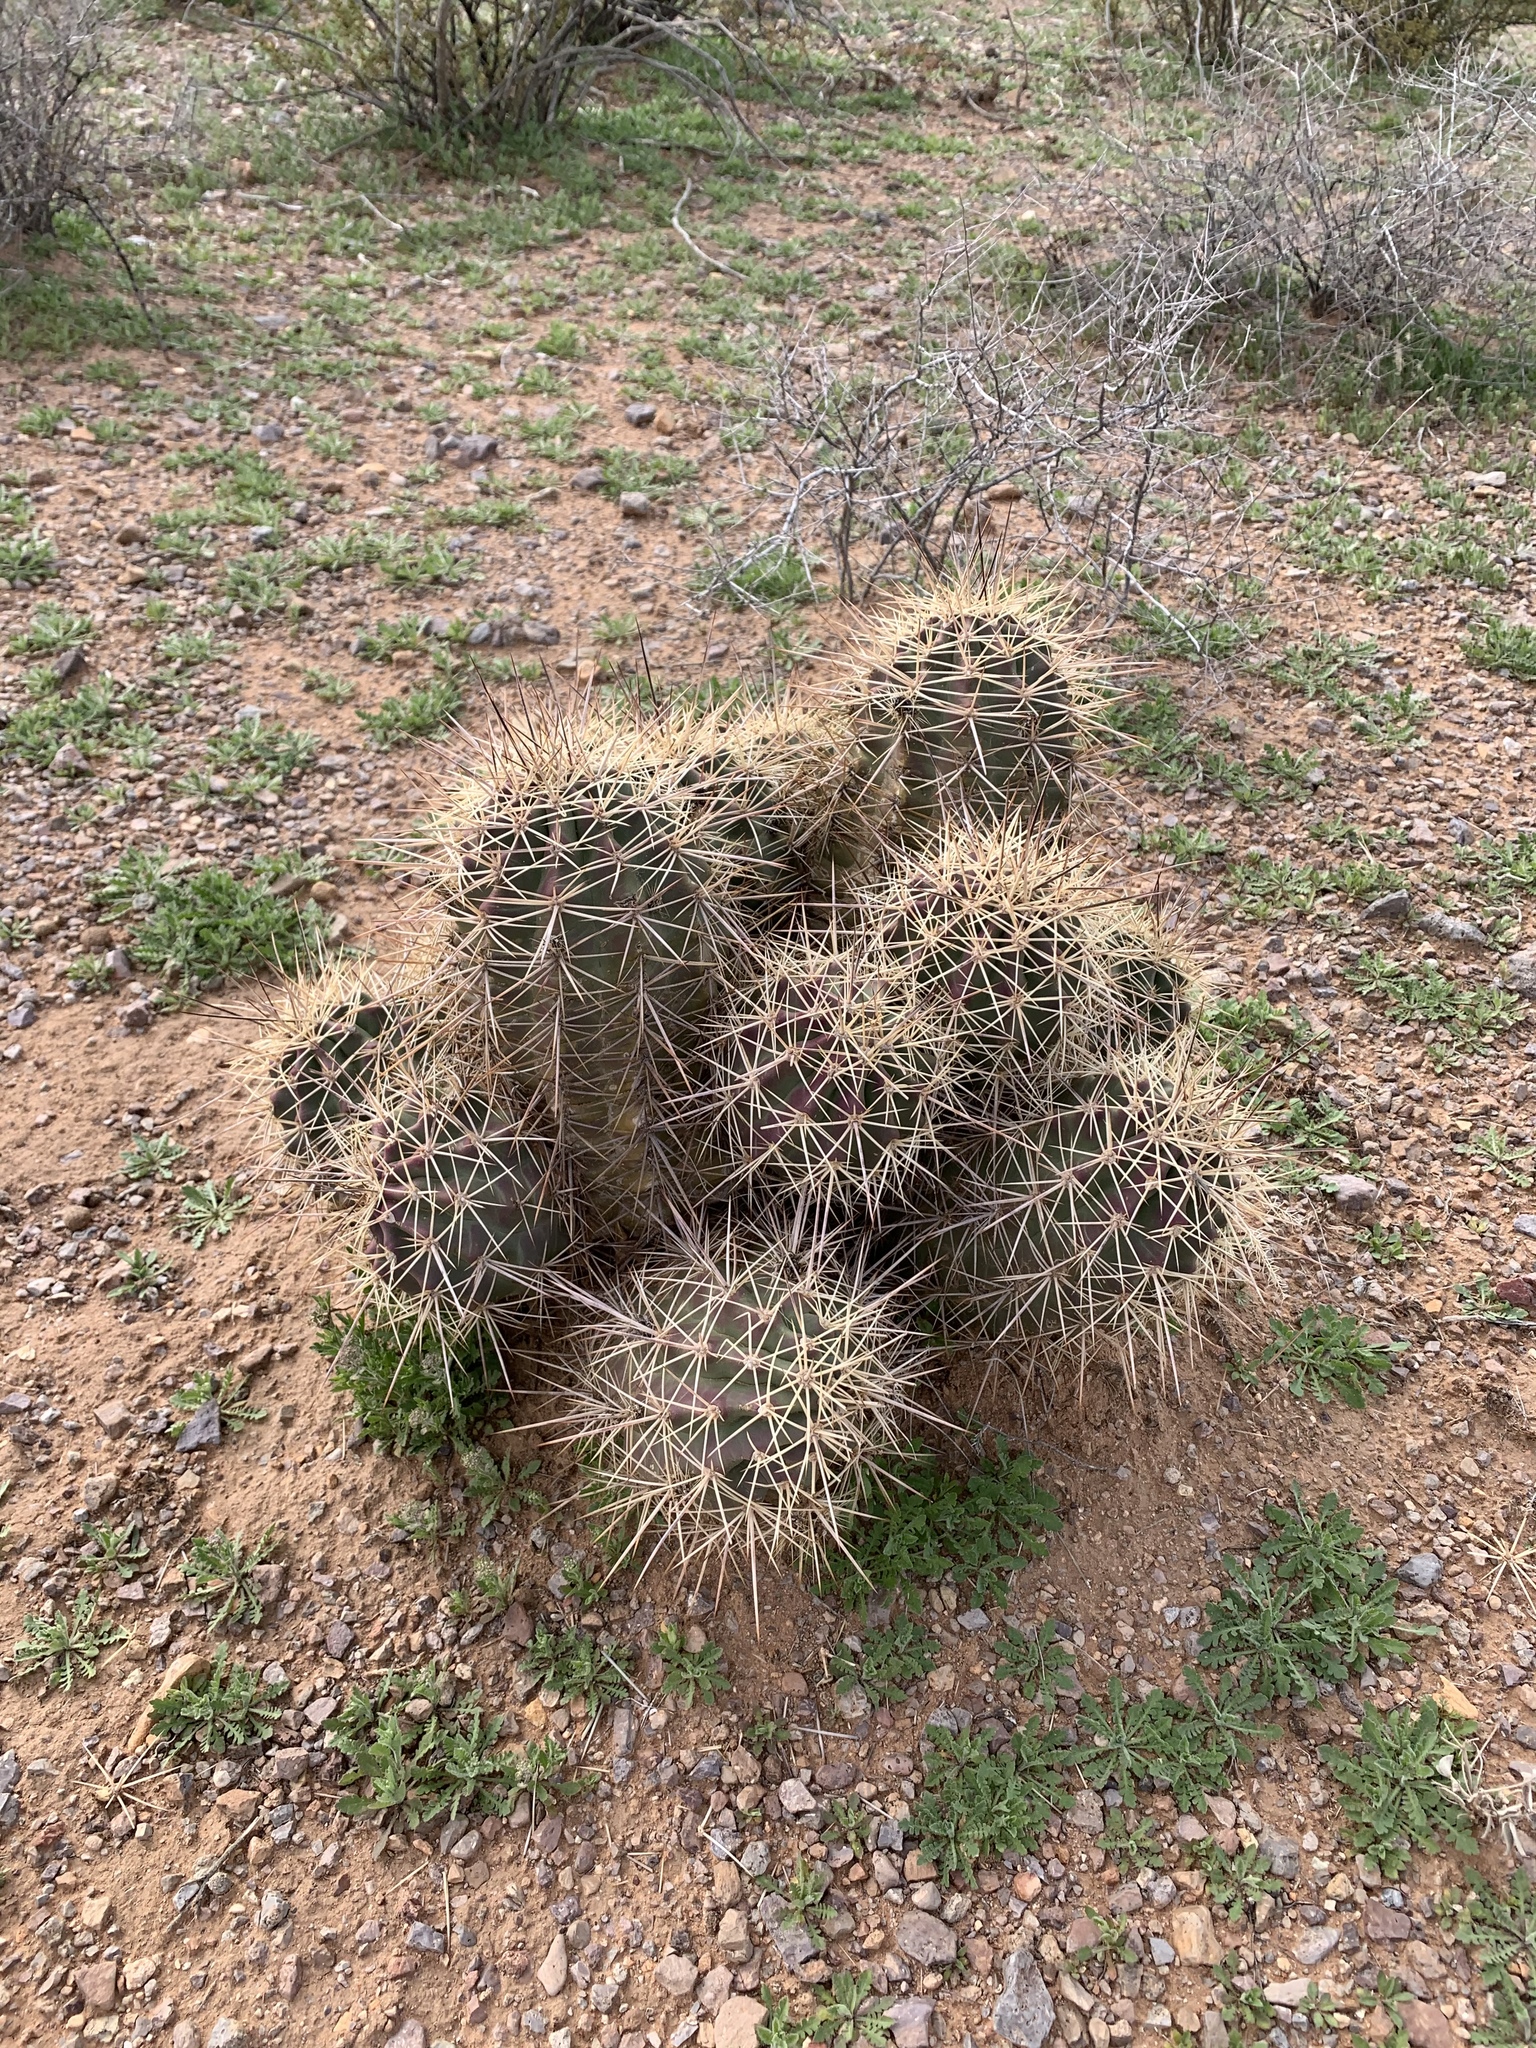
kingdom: Plantae
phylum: Tracheophyta
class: Magnoliopsida
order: Caryophyllales
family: Cactaceae
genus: Echinocereus
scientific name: Echinocereus coccineus
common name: Scarlet hedgehog cactus
